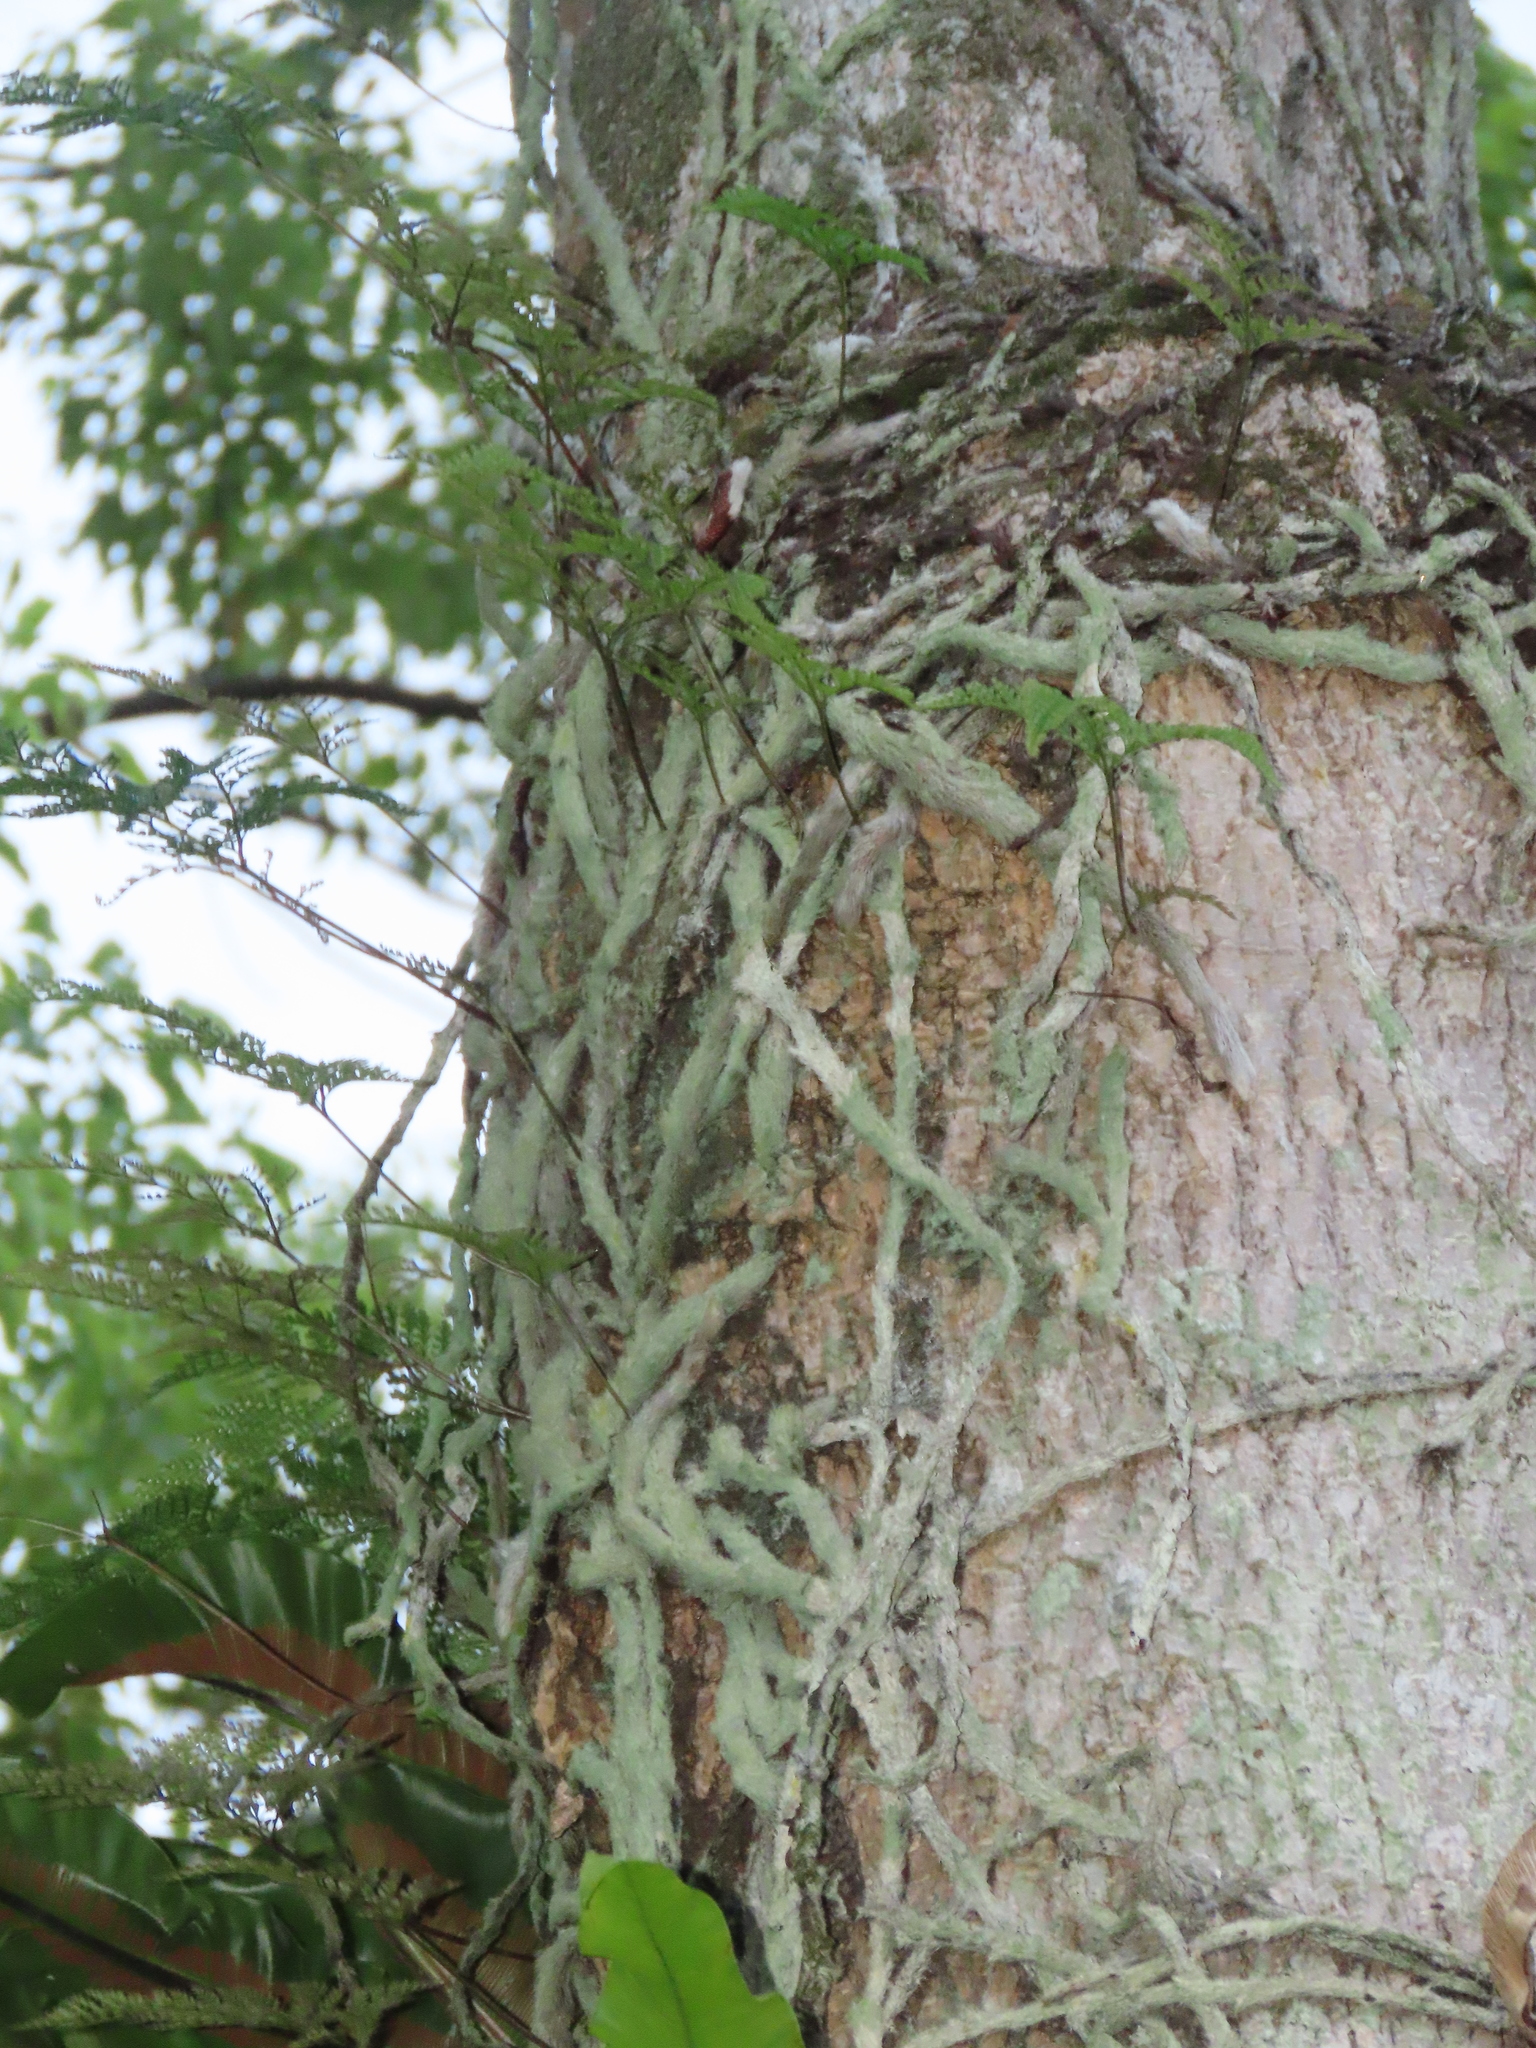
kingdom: Plantae
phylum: Tracheophyta
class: Polypodiopsida
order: Polypodiales
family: Davalliaceae
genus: Davallia
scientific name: Davallia griffithiana
